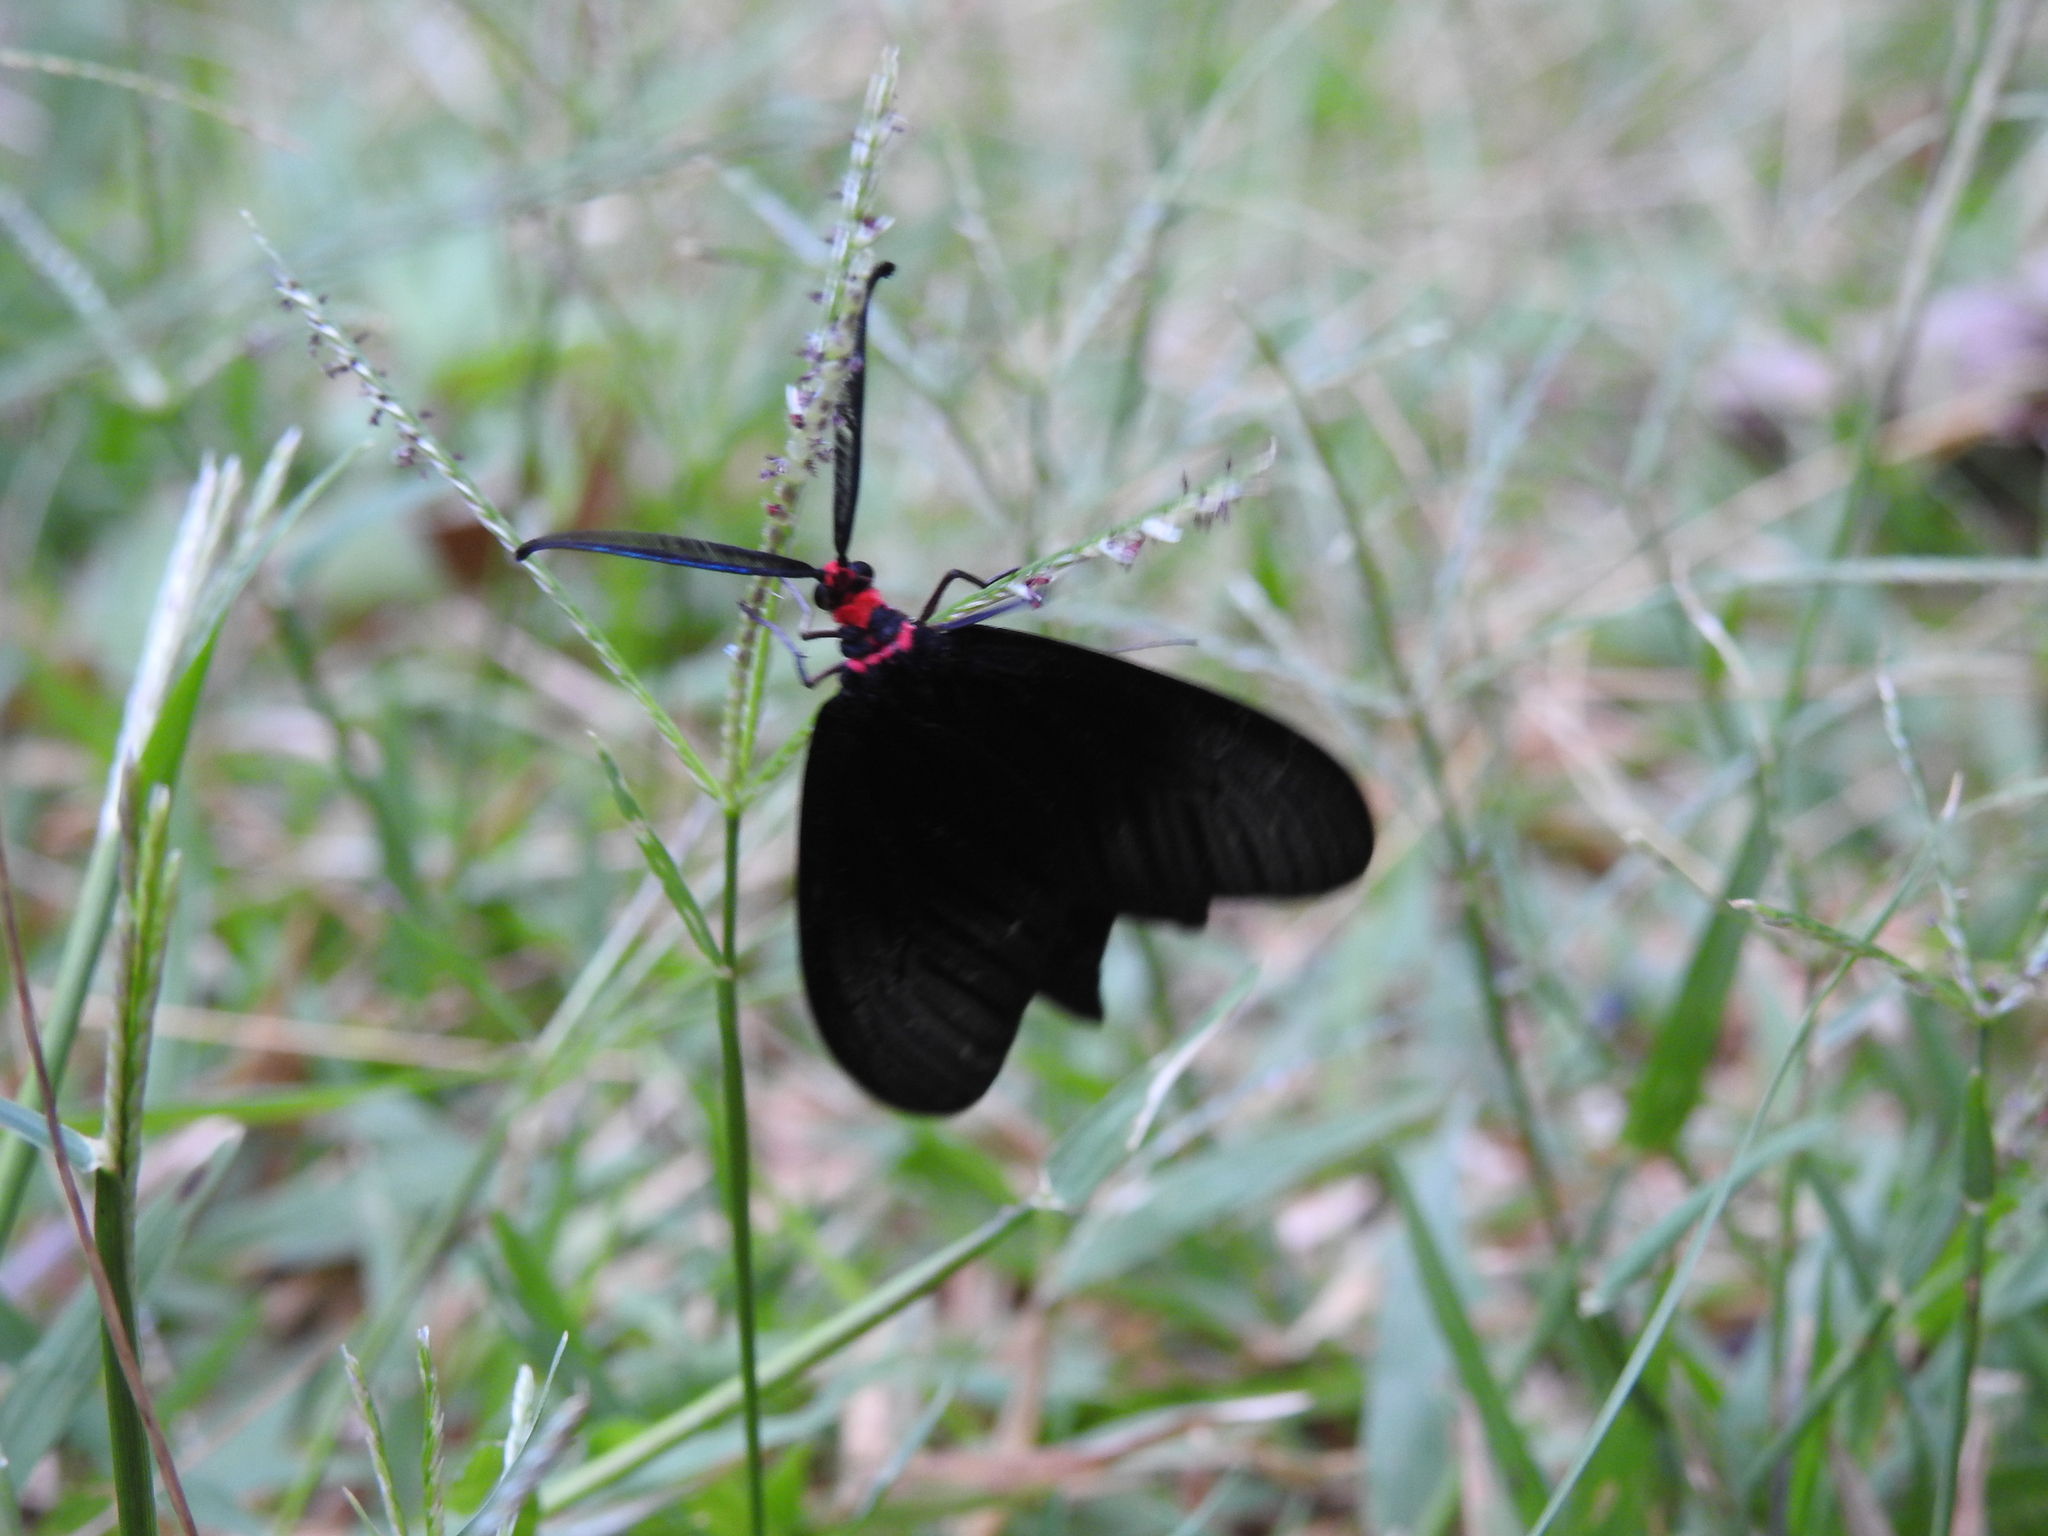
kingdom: Animalia
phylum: Arthropoda
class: Insecta
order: Lepidoptera
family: Zygaenidae
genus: Histia
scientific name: Histia flabellicornis
